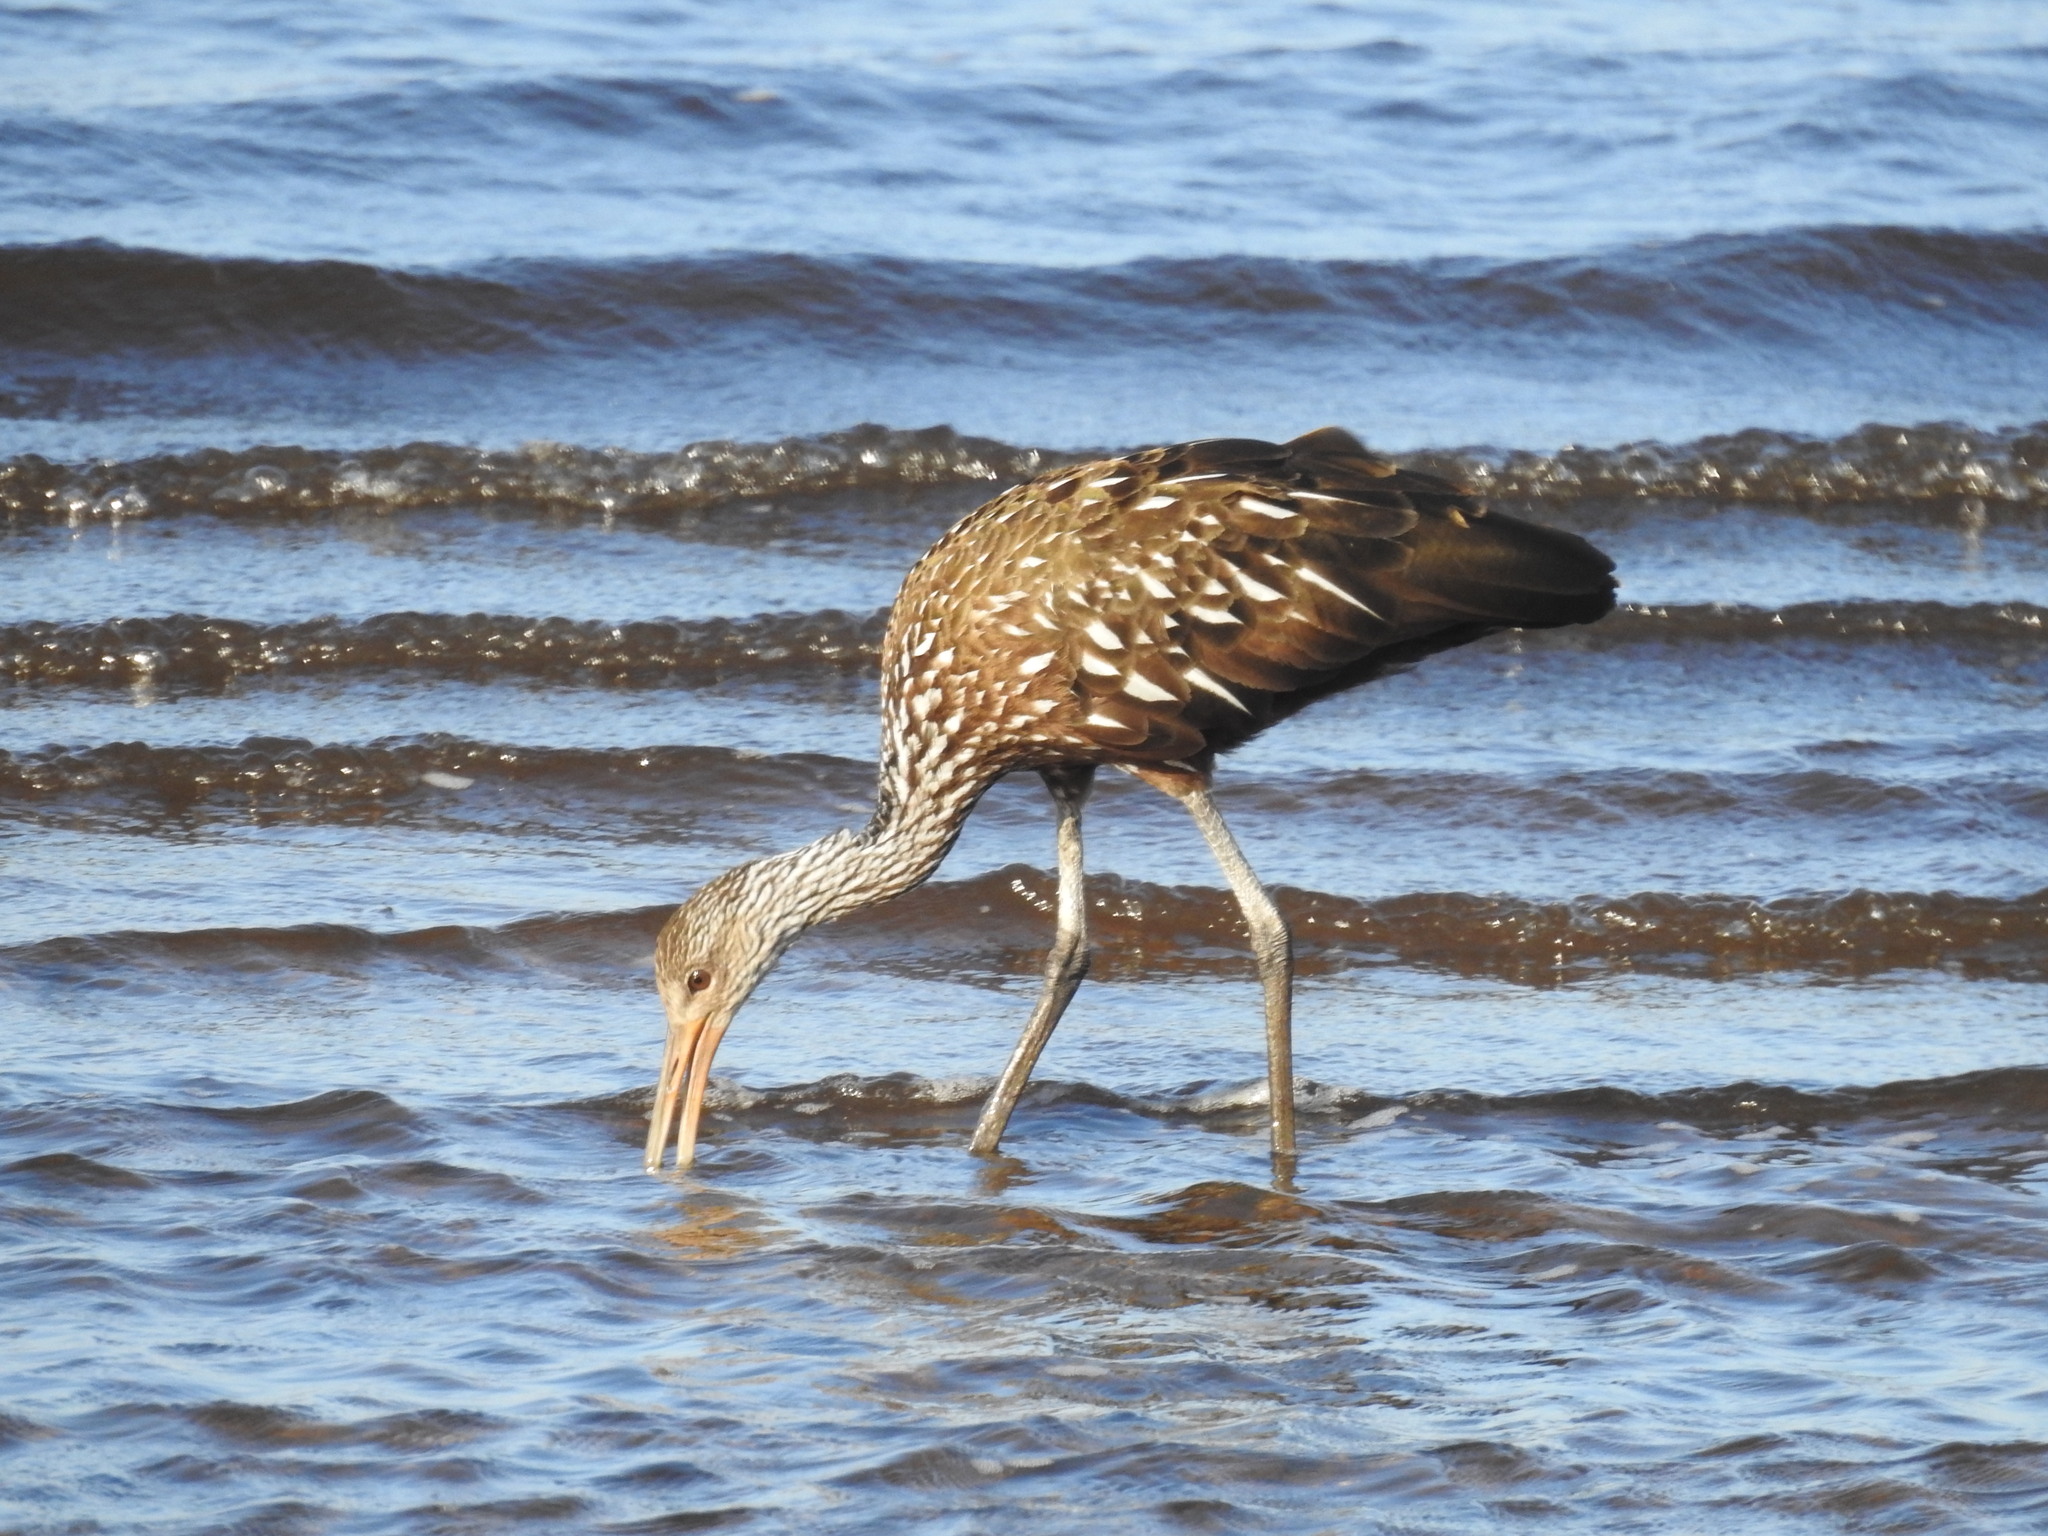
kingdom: Animalia
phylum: Chordata
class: Aves
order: Gruiformes
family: Aramidae
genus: Aramus
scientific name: Aramus guarauna
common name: Limpkin
